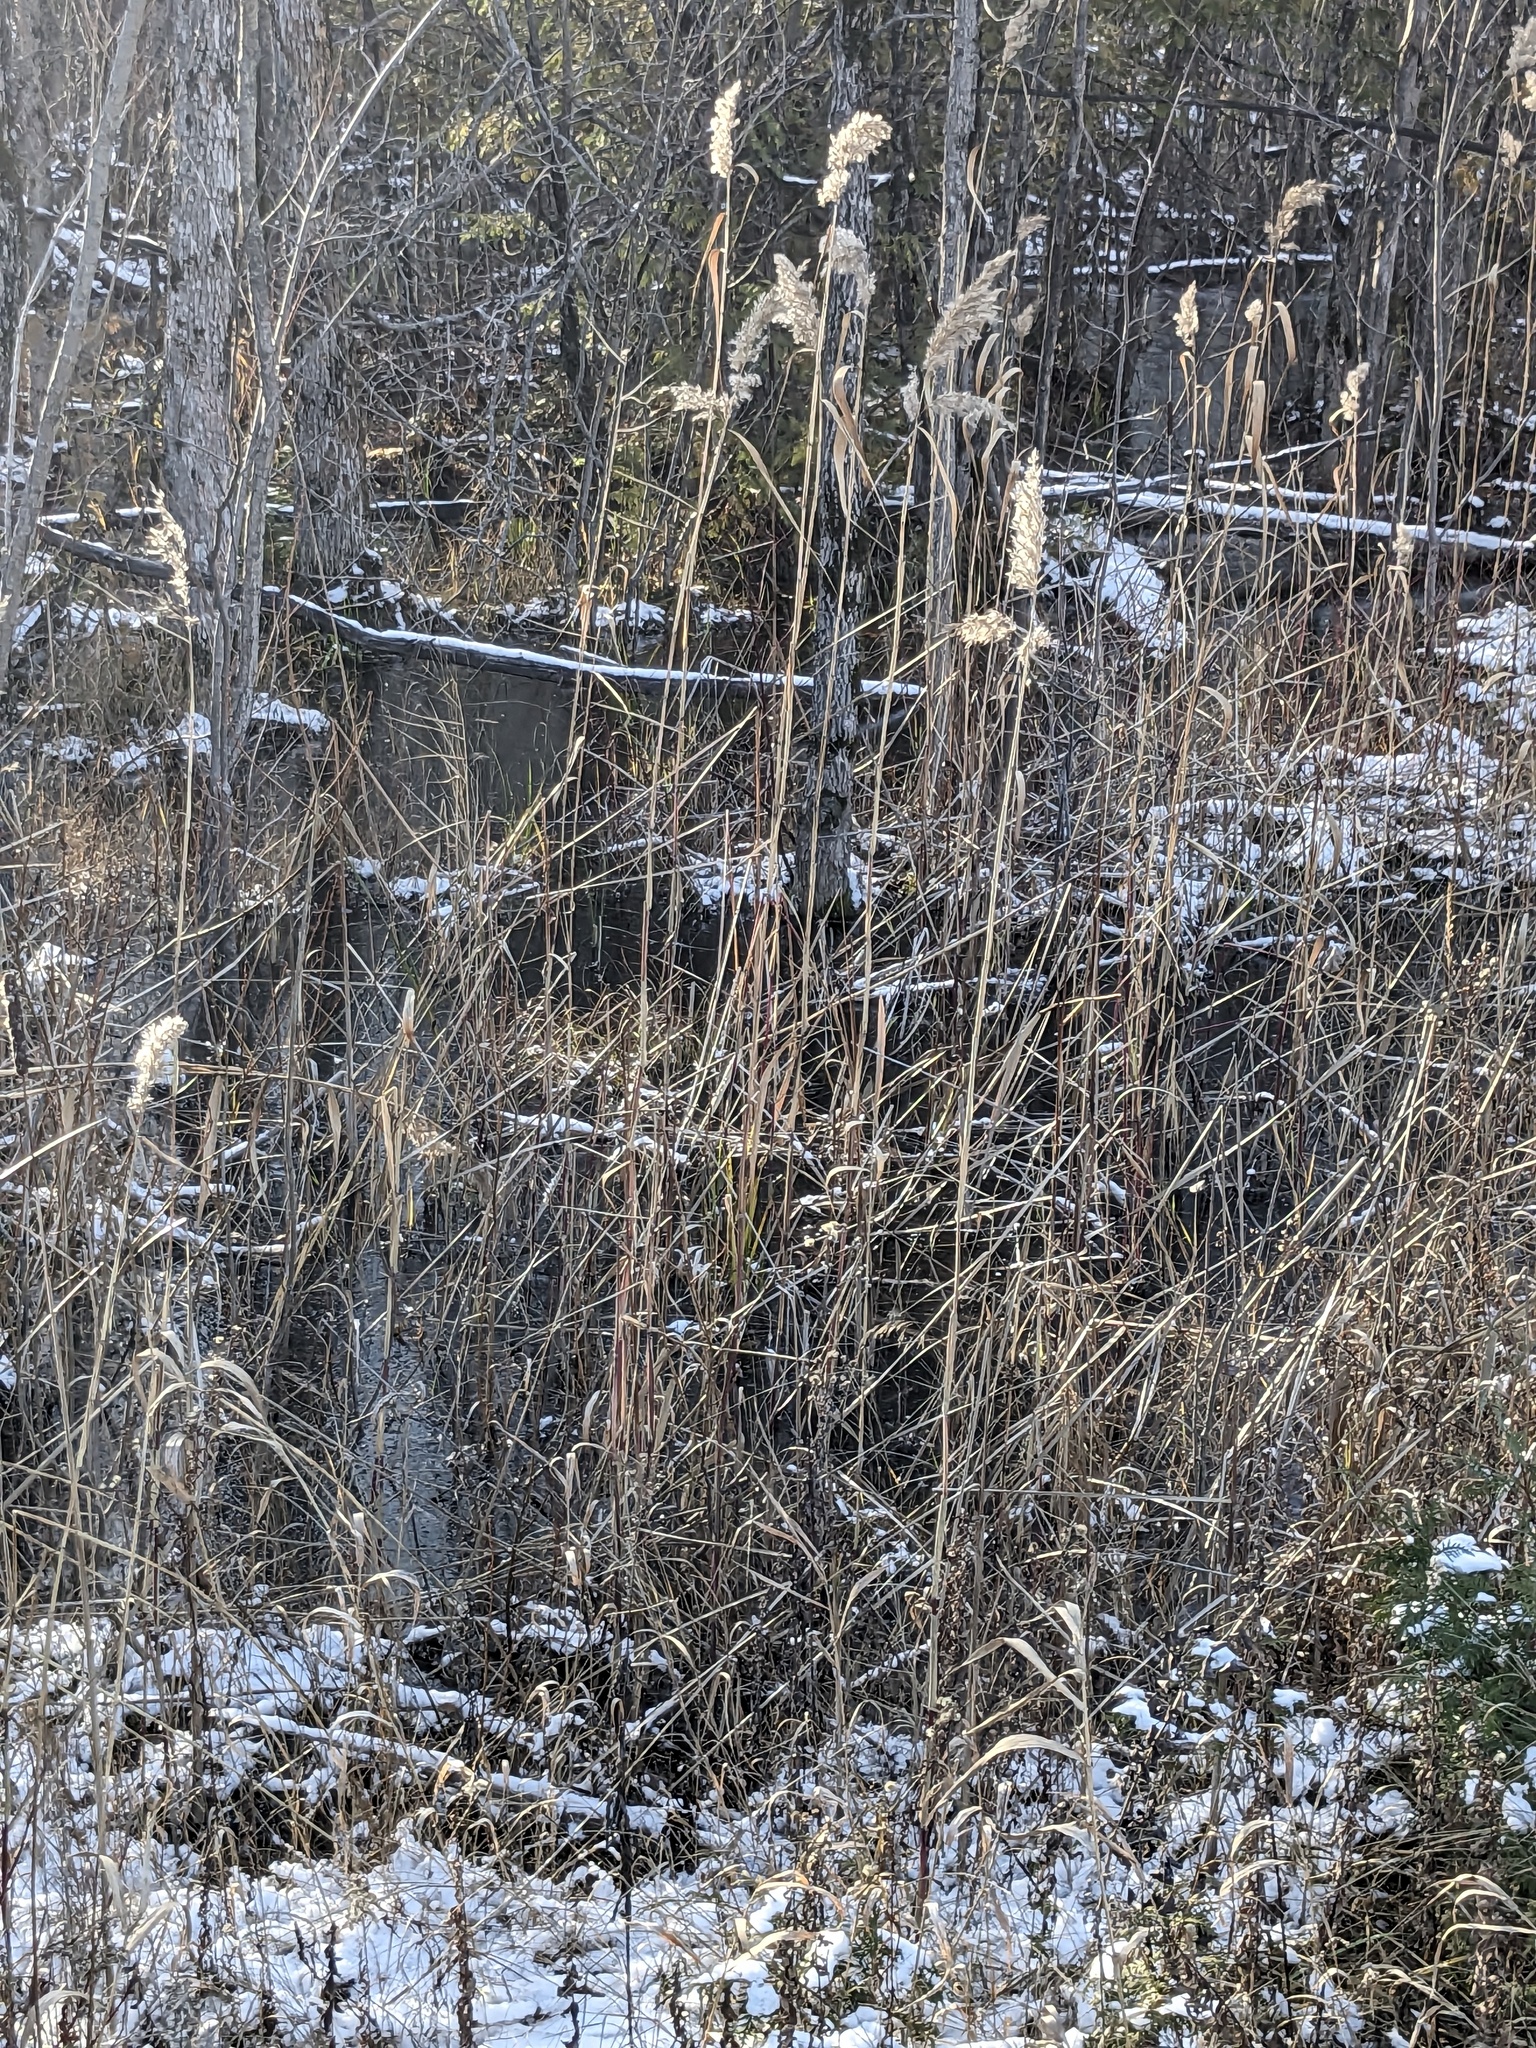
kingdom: Plantae
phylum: Tracheophyta
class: Liliopsida
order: Poales
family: Poaceae
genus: Phragmites
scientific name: Phragmites australis
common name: Common reed
